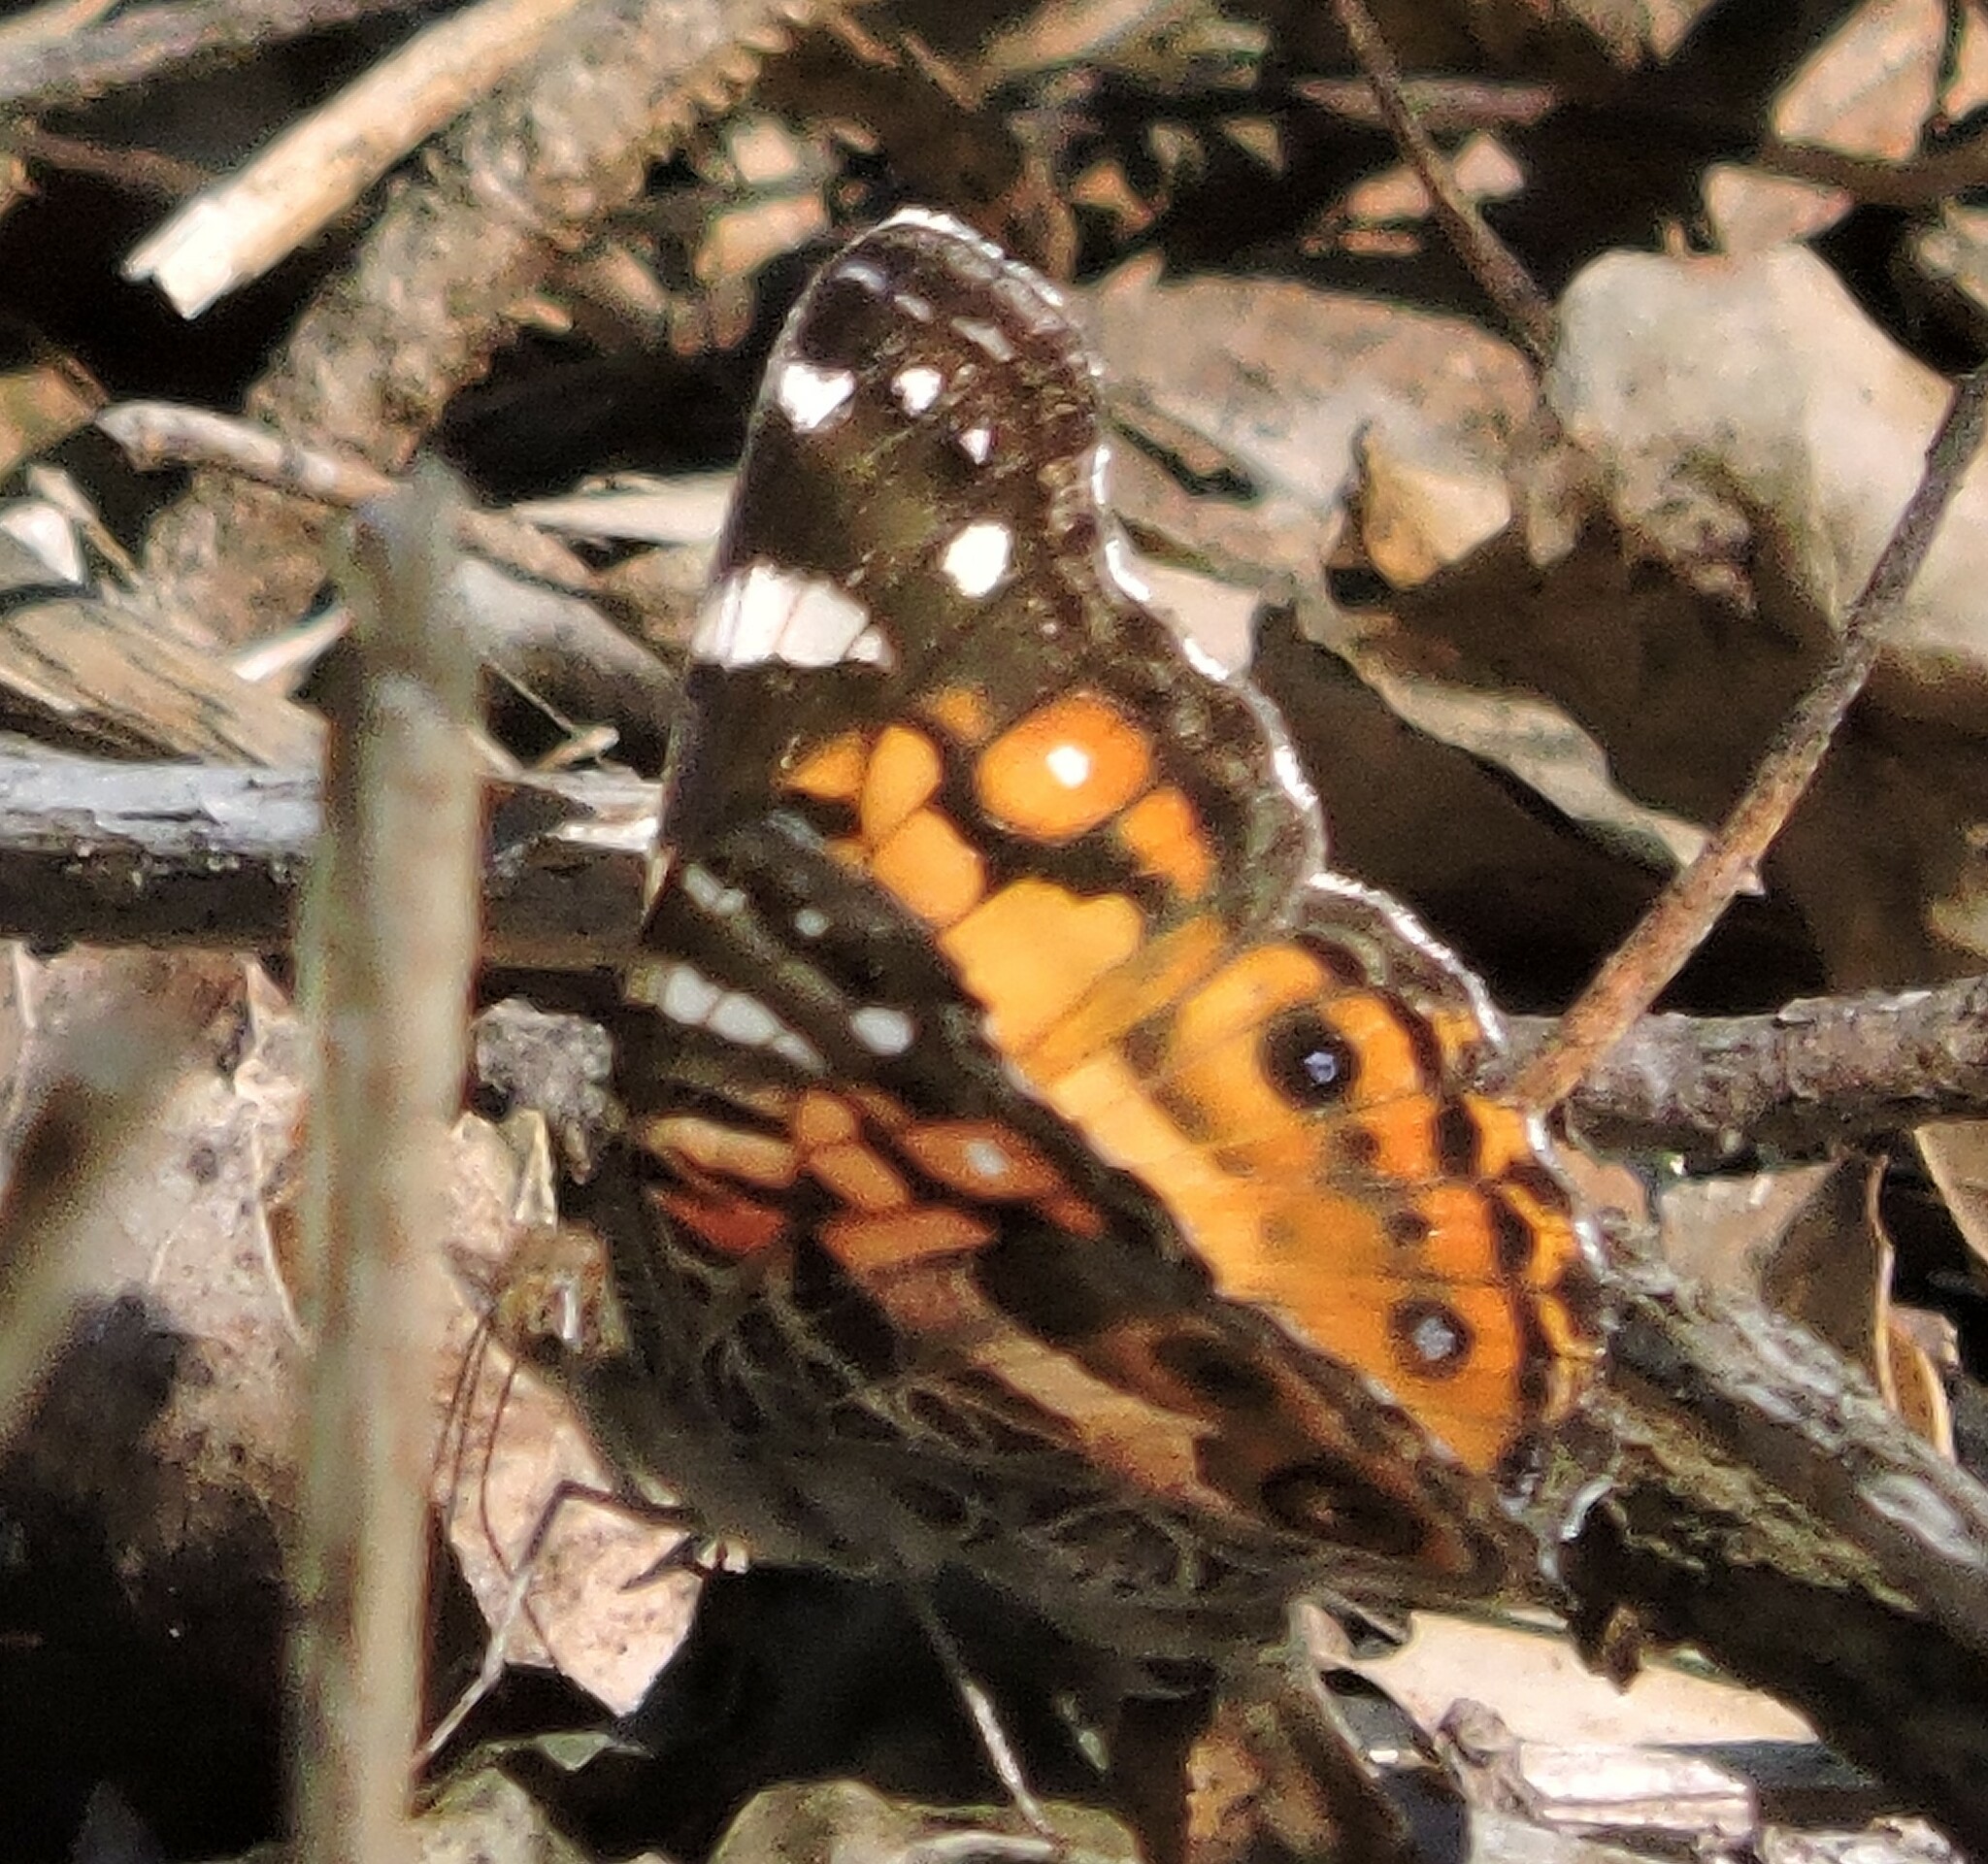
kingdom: Animalia
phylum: Arthropoda
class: Insecta
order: Lepidoptera
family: Nymphalidae
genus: Vanessa
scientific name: Vanessa virginiensis
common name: American lady
